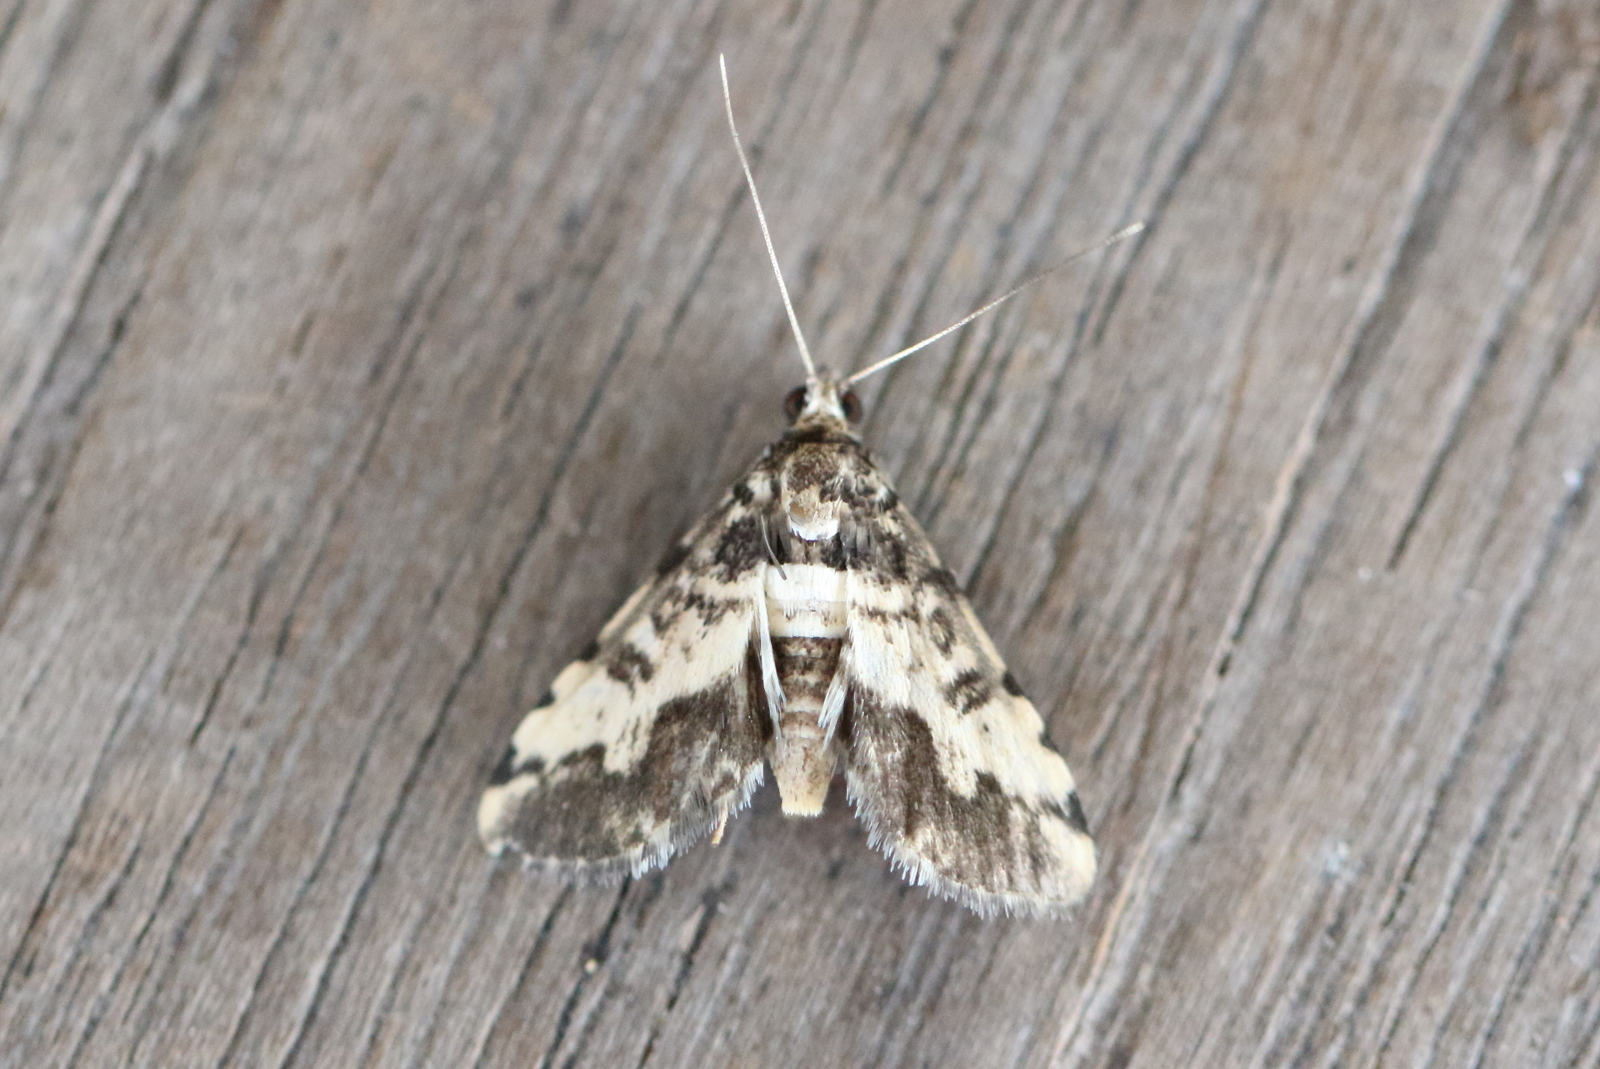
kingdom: Animalia
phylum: Arthropoda
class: Insecta
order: Lepidoptera
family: Crambidae
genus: Nacoleia
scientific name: Nacoleia amphicedalis
